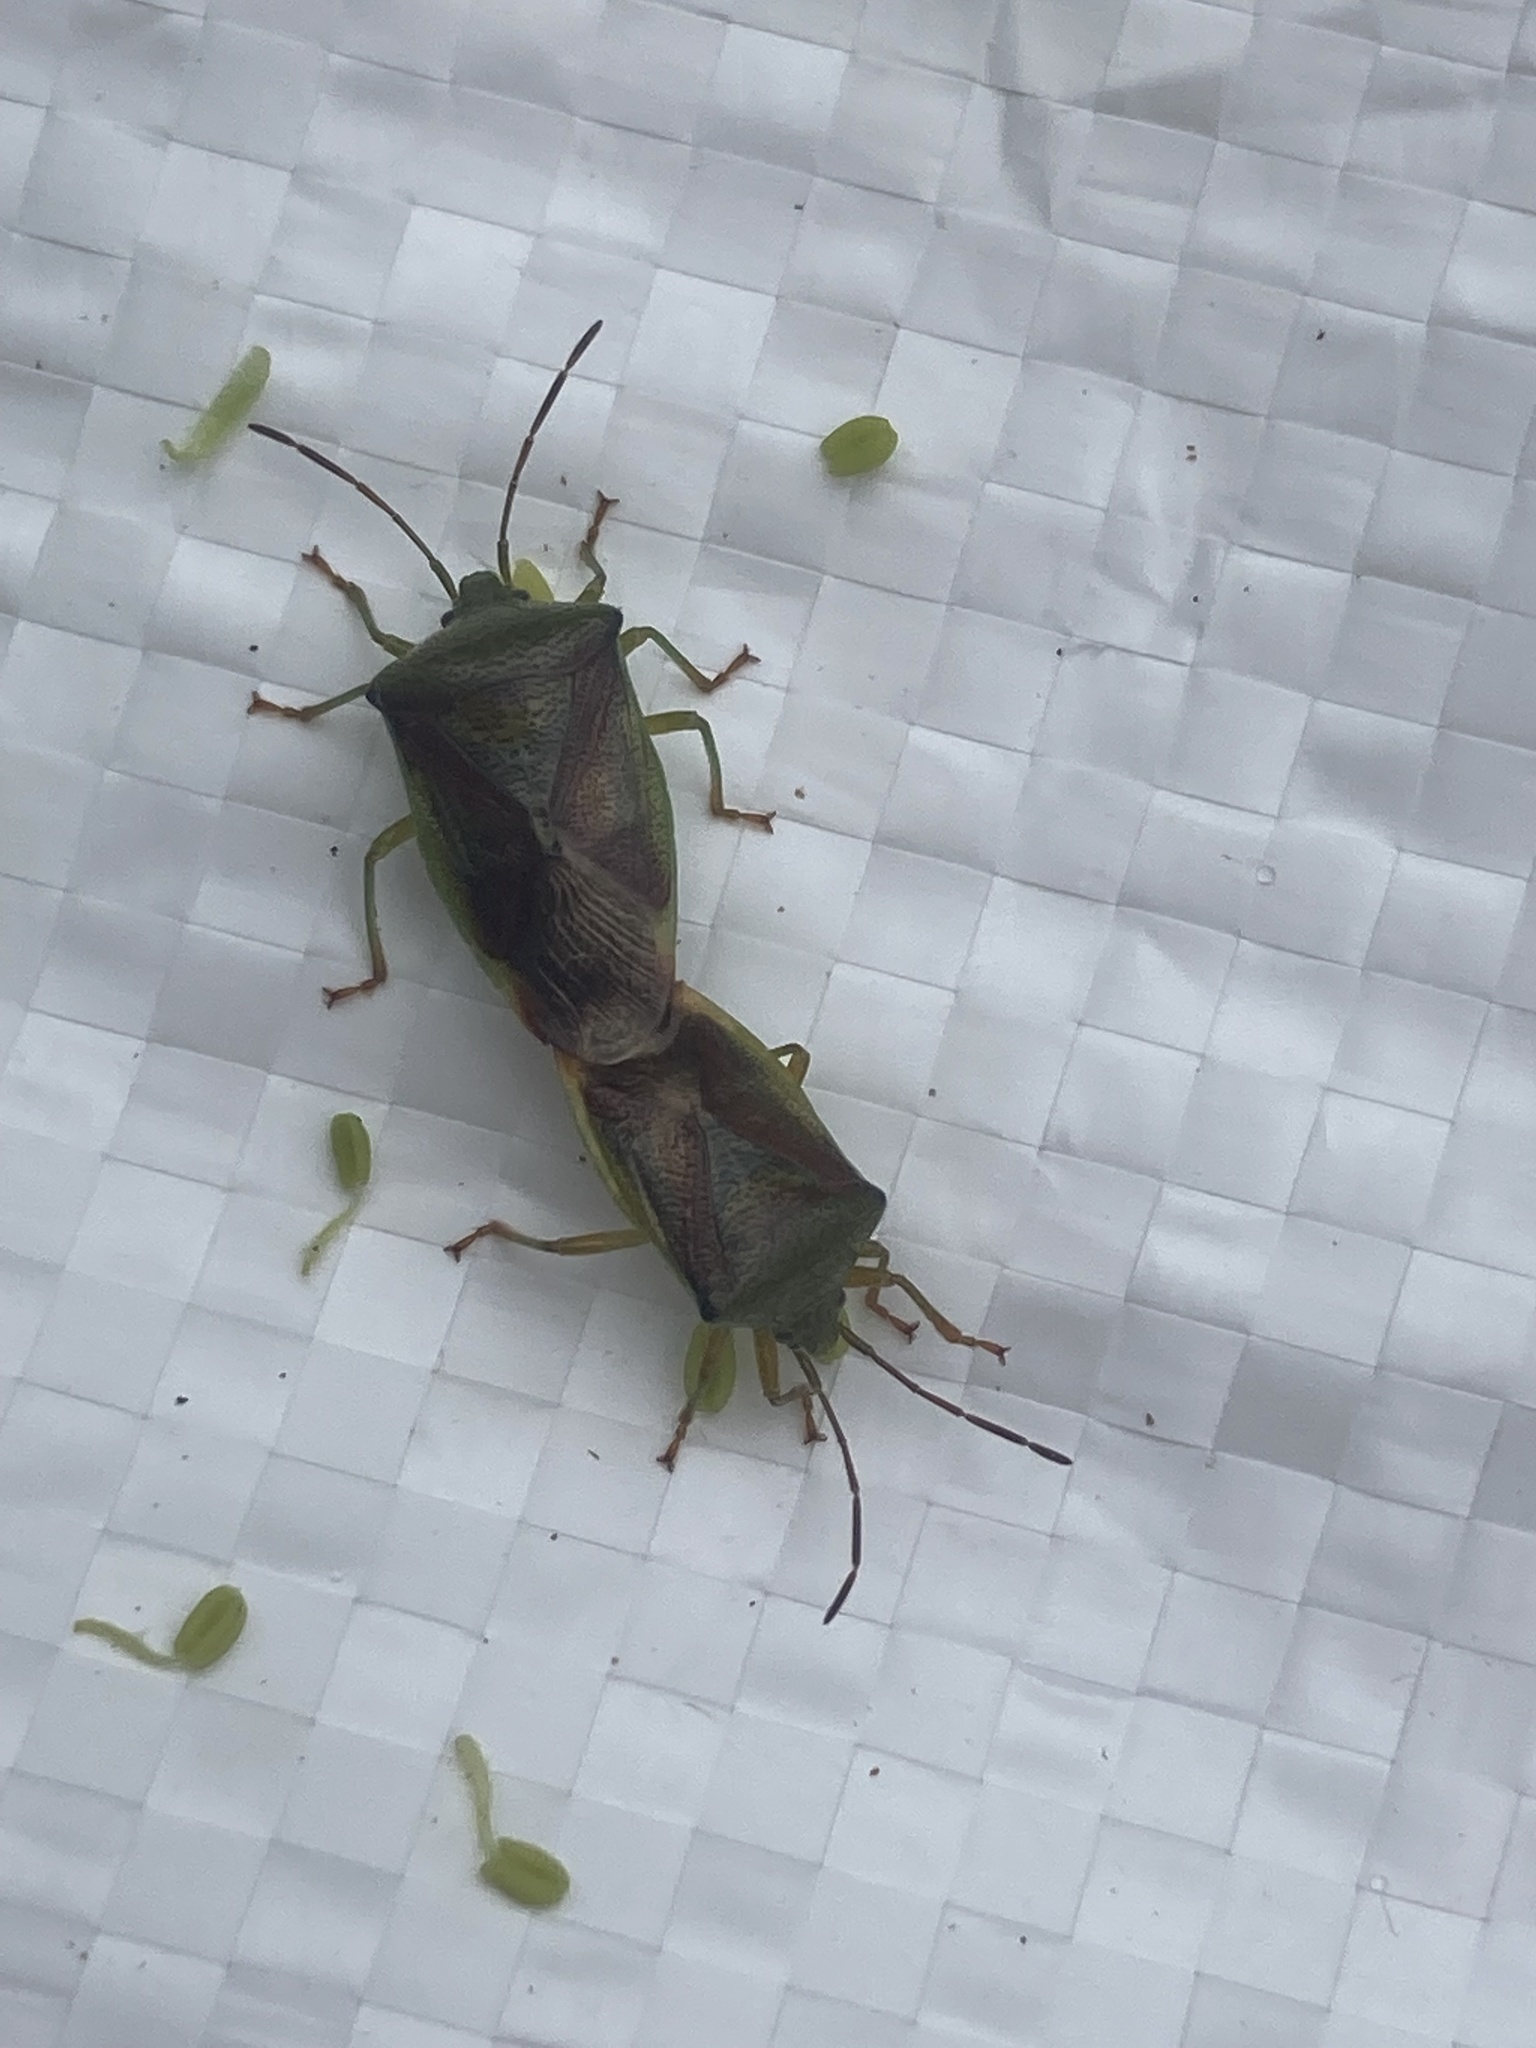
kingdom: Animalia
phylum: Arthropoda
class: Insecta
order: Hemiptera
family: Acanthosomatidae
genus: Elasmostethus
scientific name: Elasmostethus interstinctus
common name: Birch shieldbug
